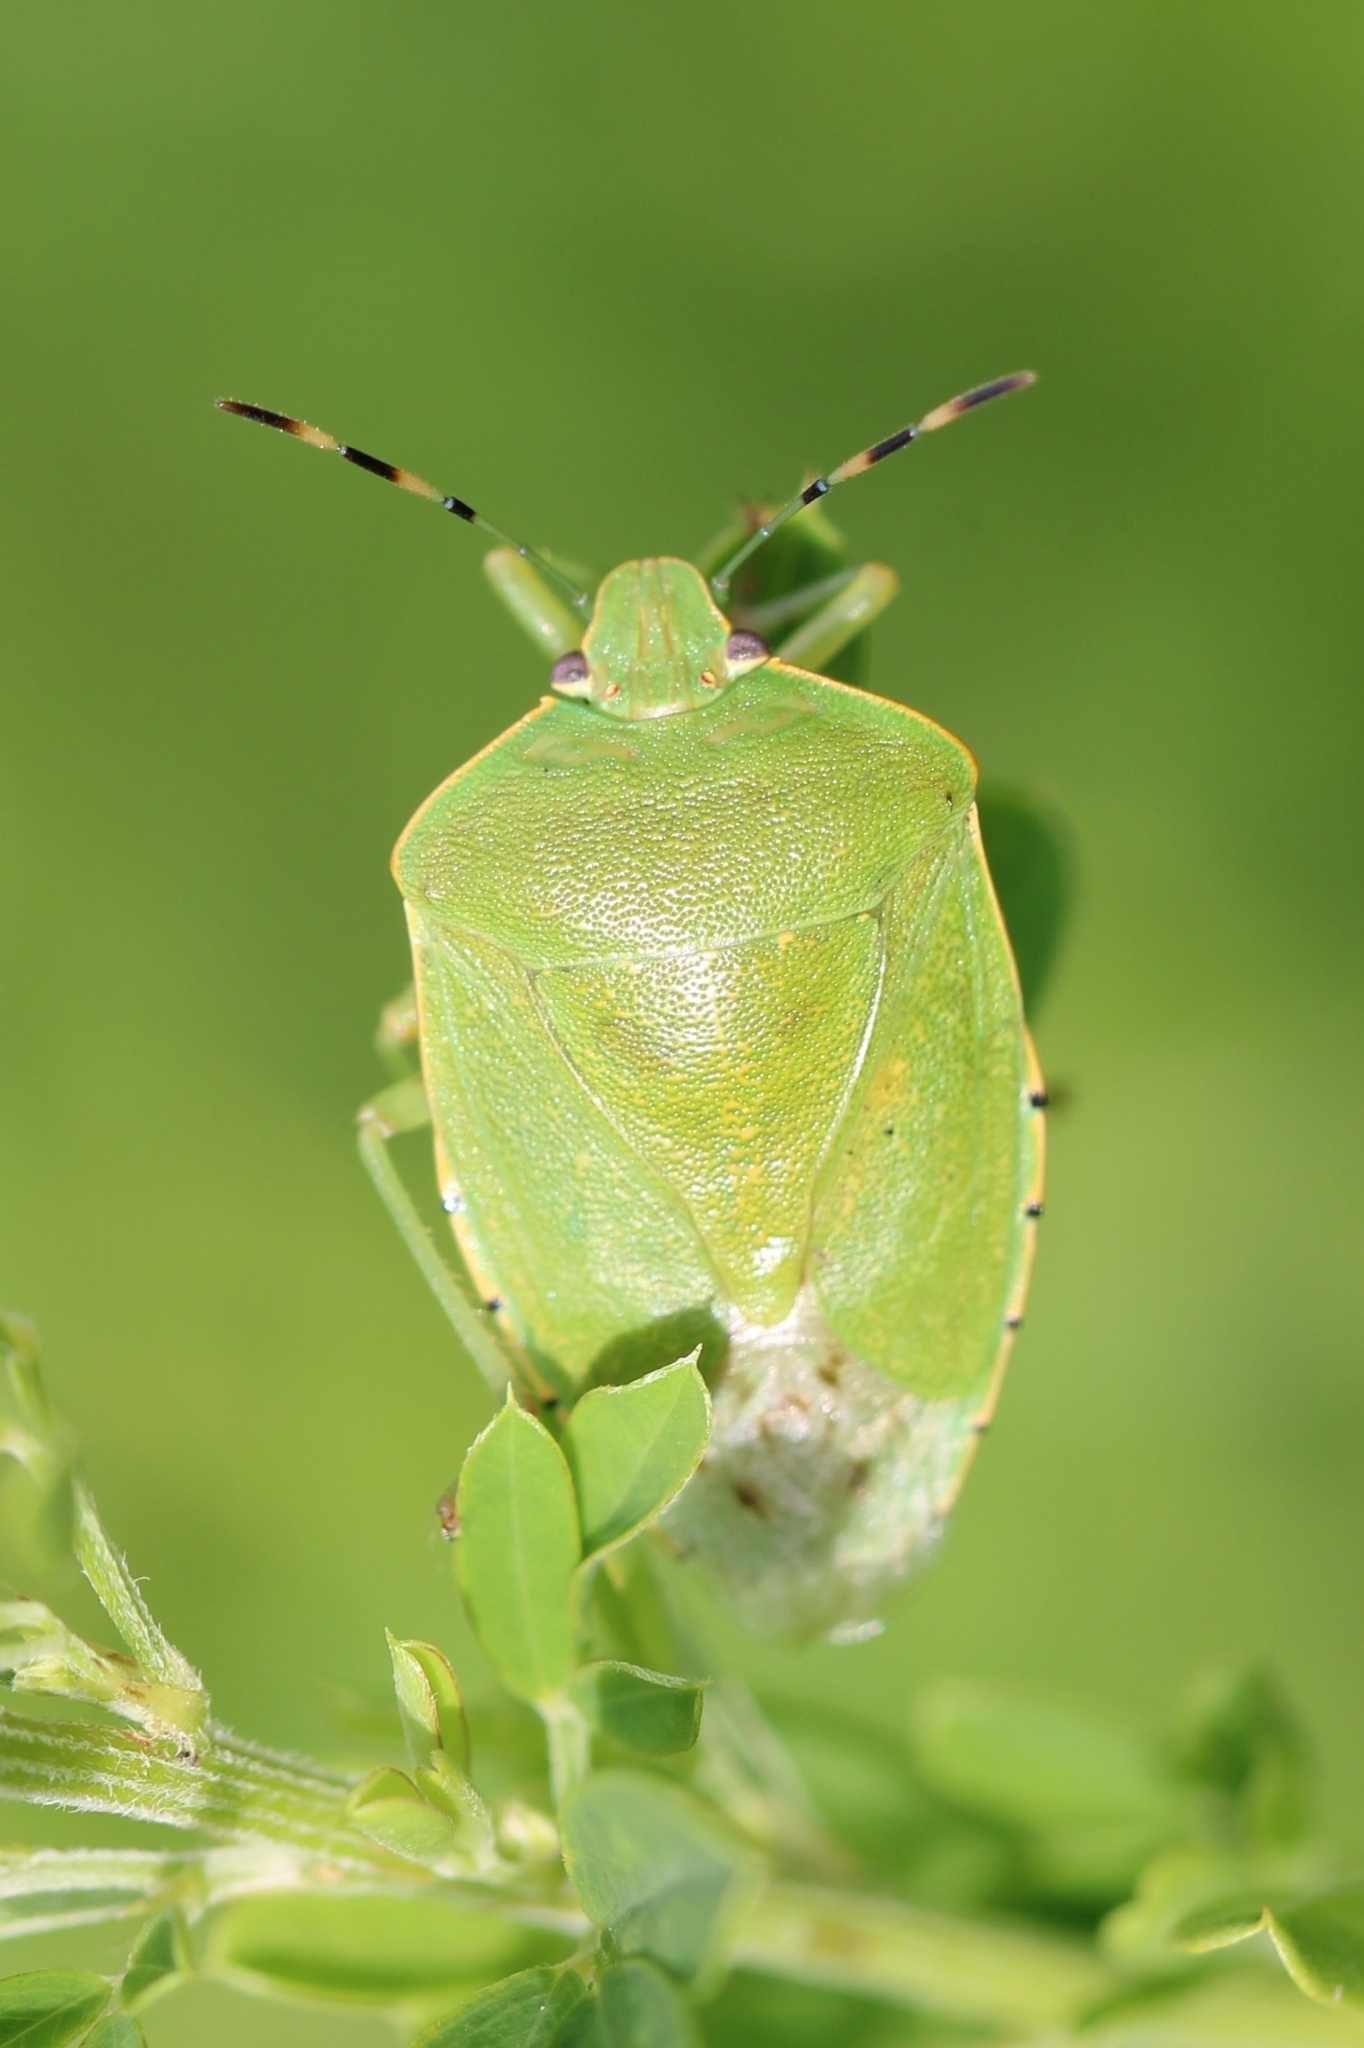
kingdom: Animalia
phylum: Arthropoda
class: Insecta
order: Hemiptera
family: Pentatomidae
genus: Chinavia
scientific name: Chinavia hilaris
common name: Green stink bug
